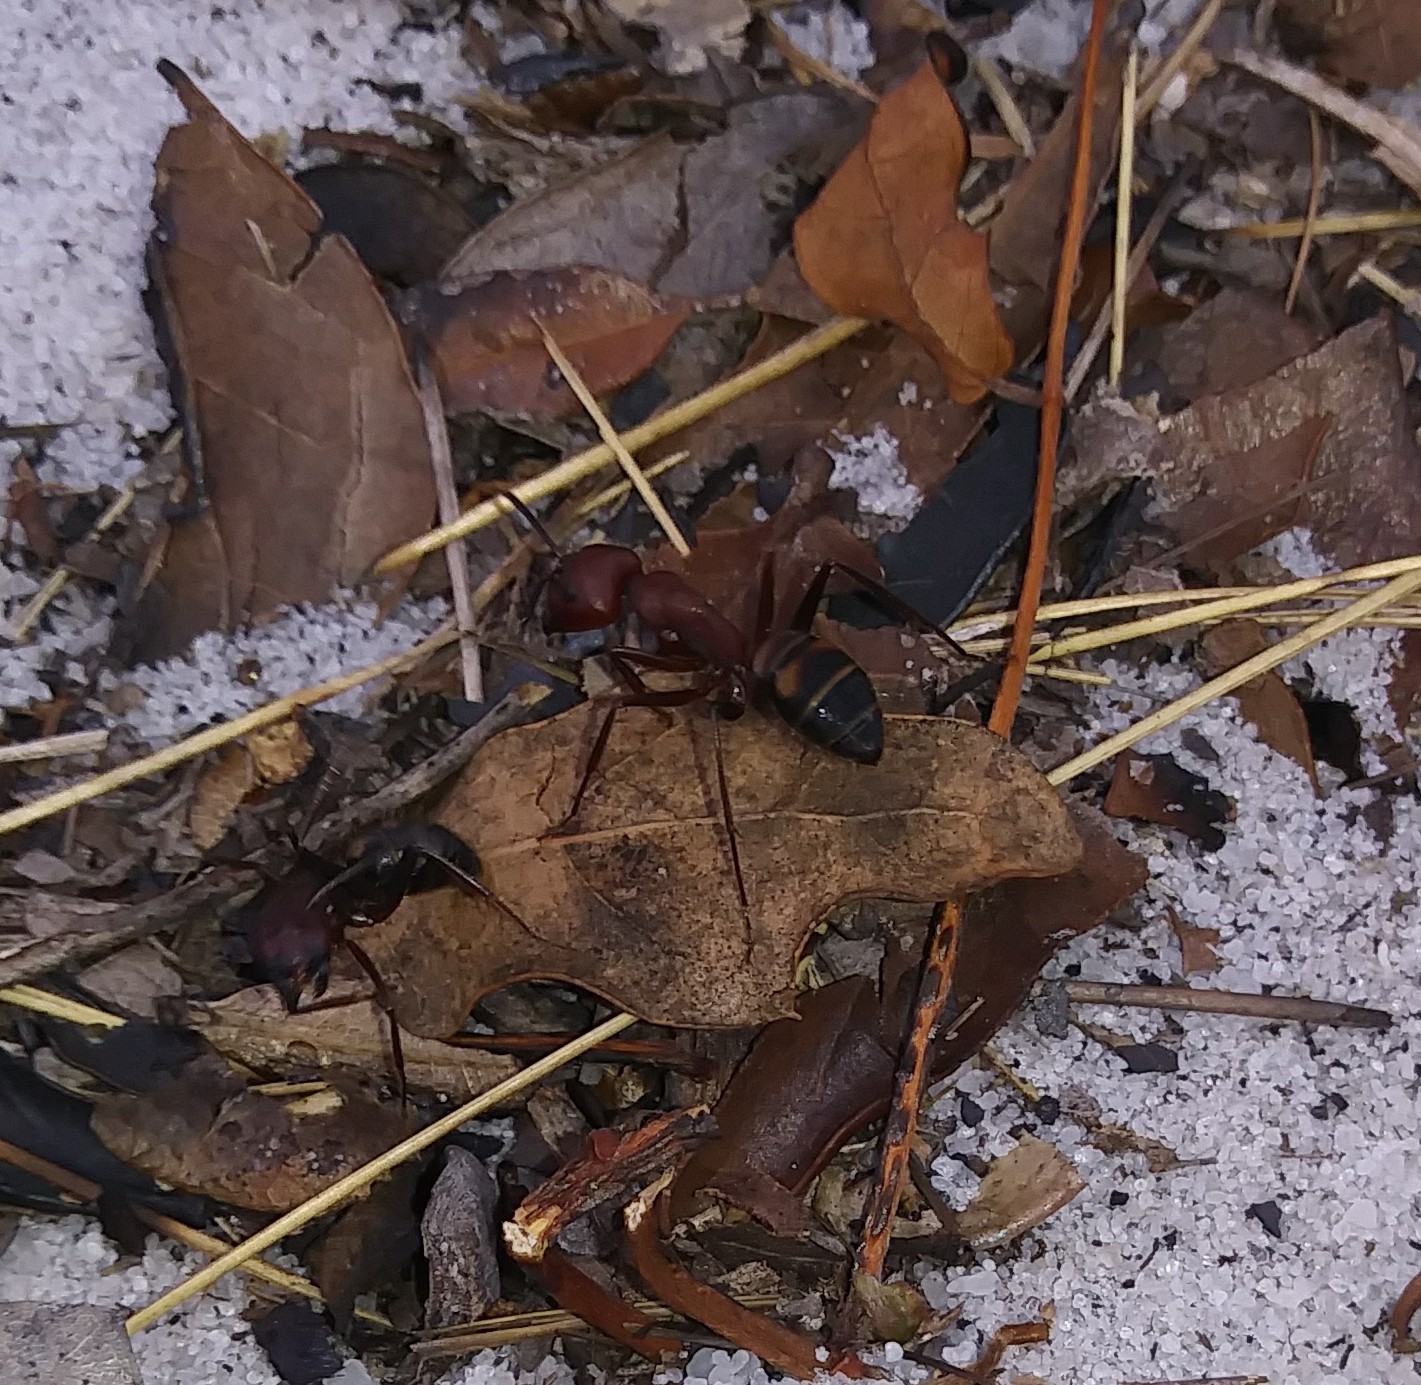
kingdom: Animalia
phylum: Arthropoda
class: Insecta
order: Hymenoptera
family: Formicidae
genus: Camponotus
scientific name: Camponotus socius
